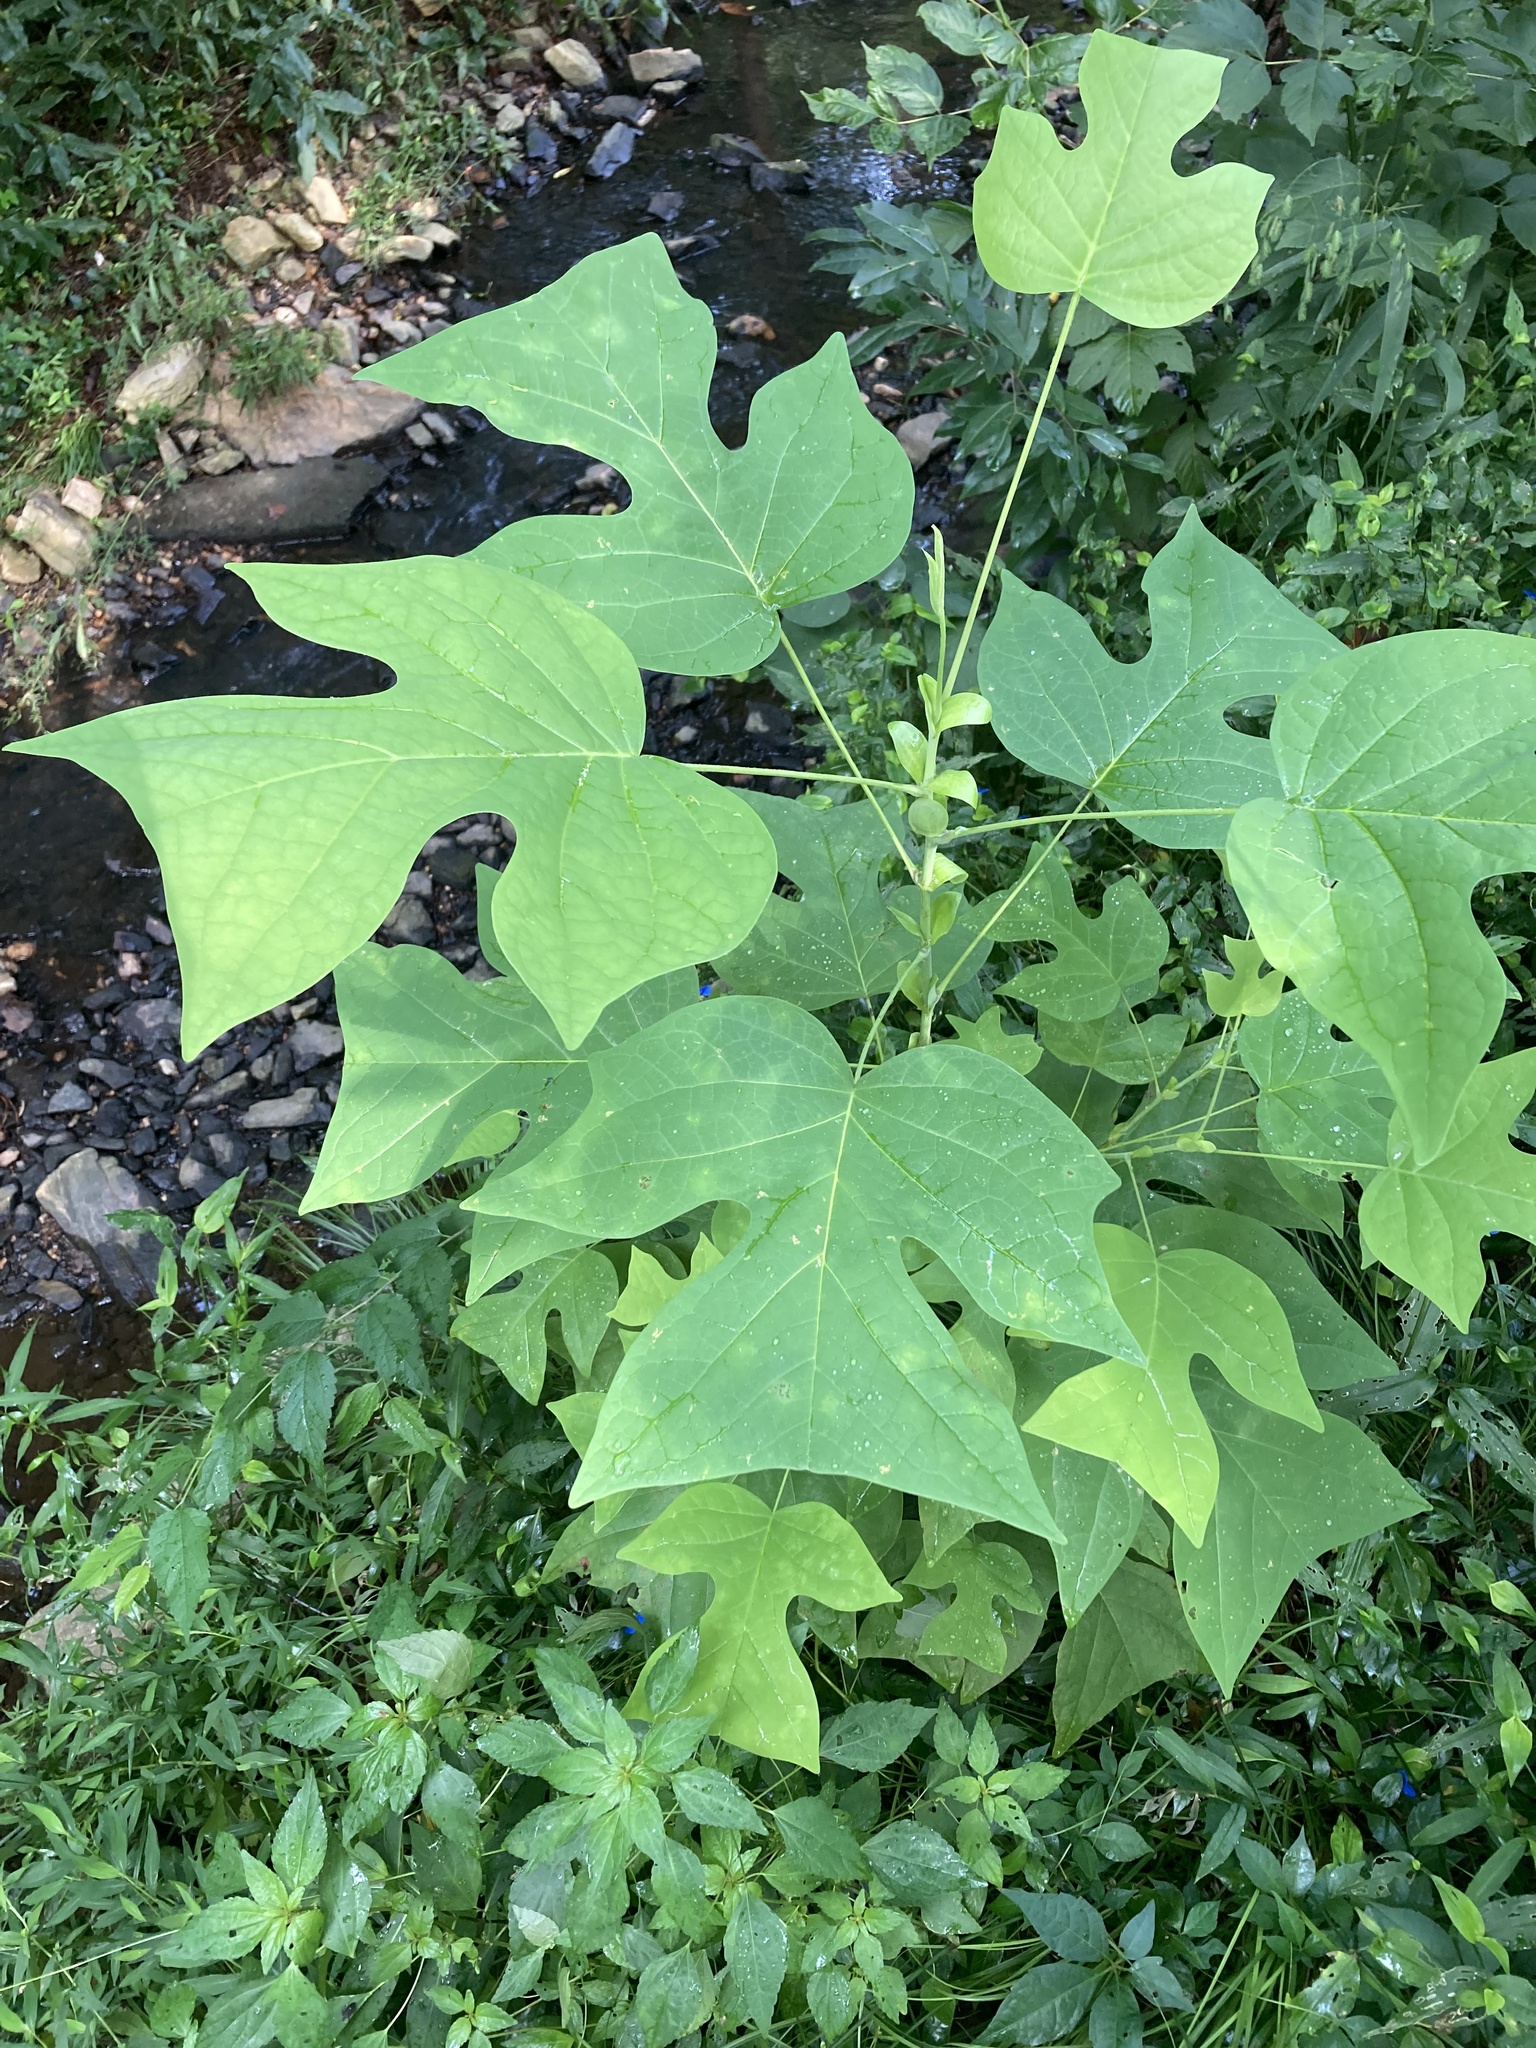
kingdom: Plantae
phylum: Tracheophyta
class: Magnoliopsida
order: Magnoliales
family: Magnoliaceae
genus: Liriodendron
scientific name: Liriodendron tulipifera
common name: Tulip tree
